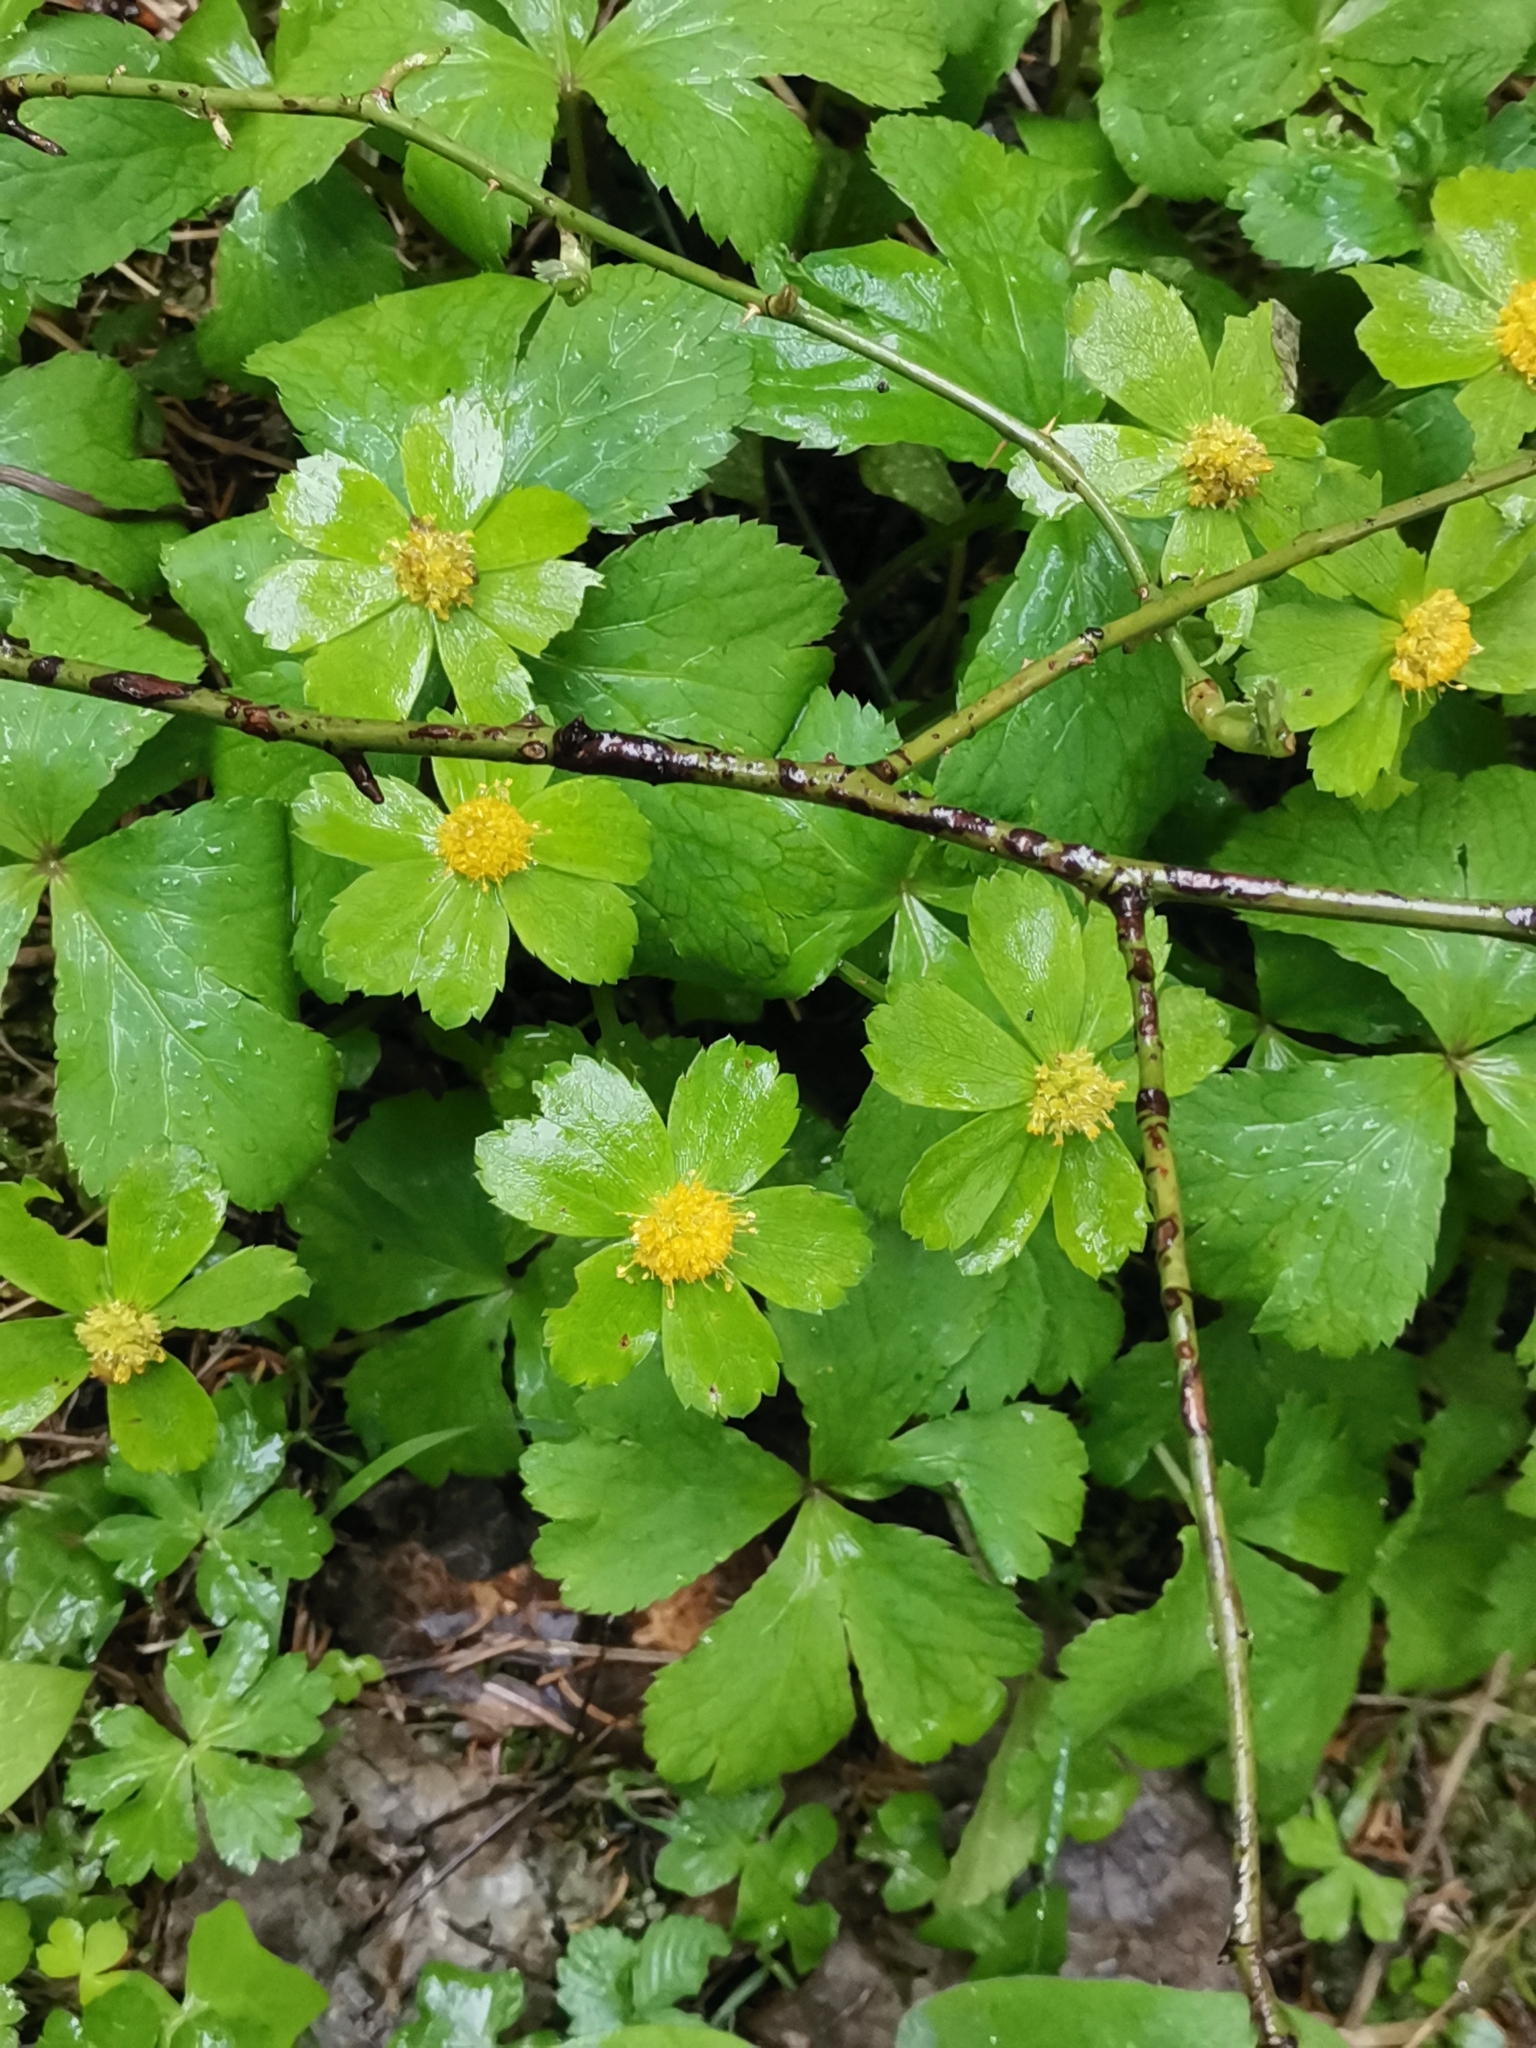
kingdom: Plantae
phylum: Tracheophyta
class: Magnoliopsida
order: Apiales
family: Apiaceae
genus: Sanicula
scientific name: Sanicula epipactis
